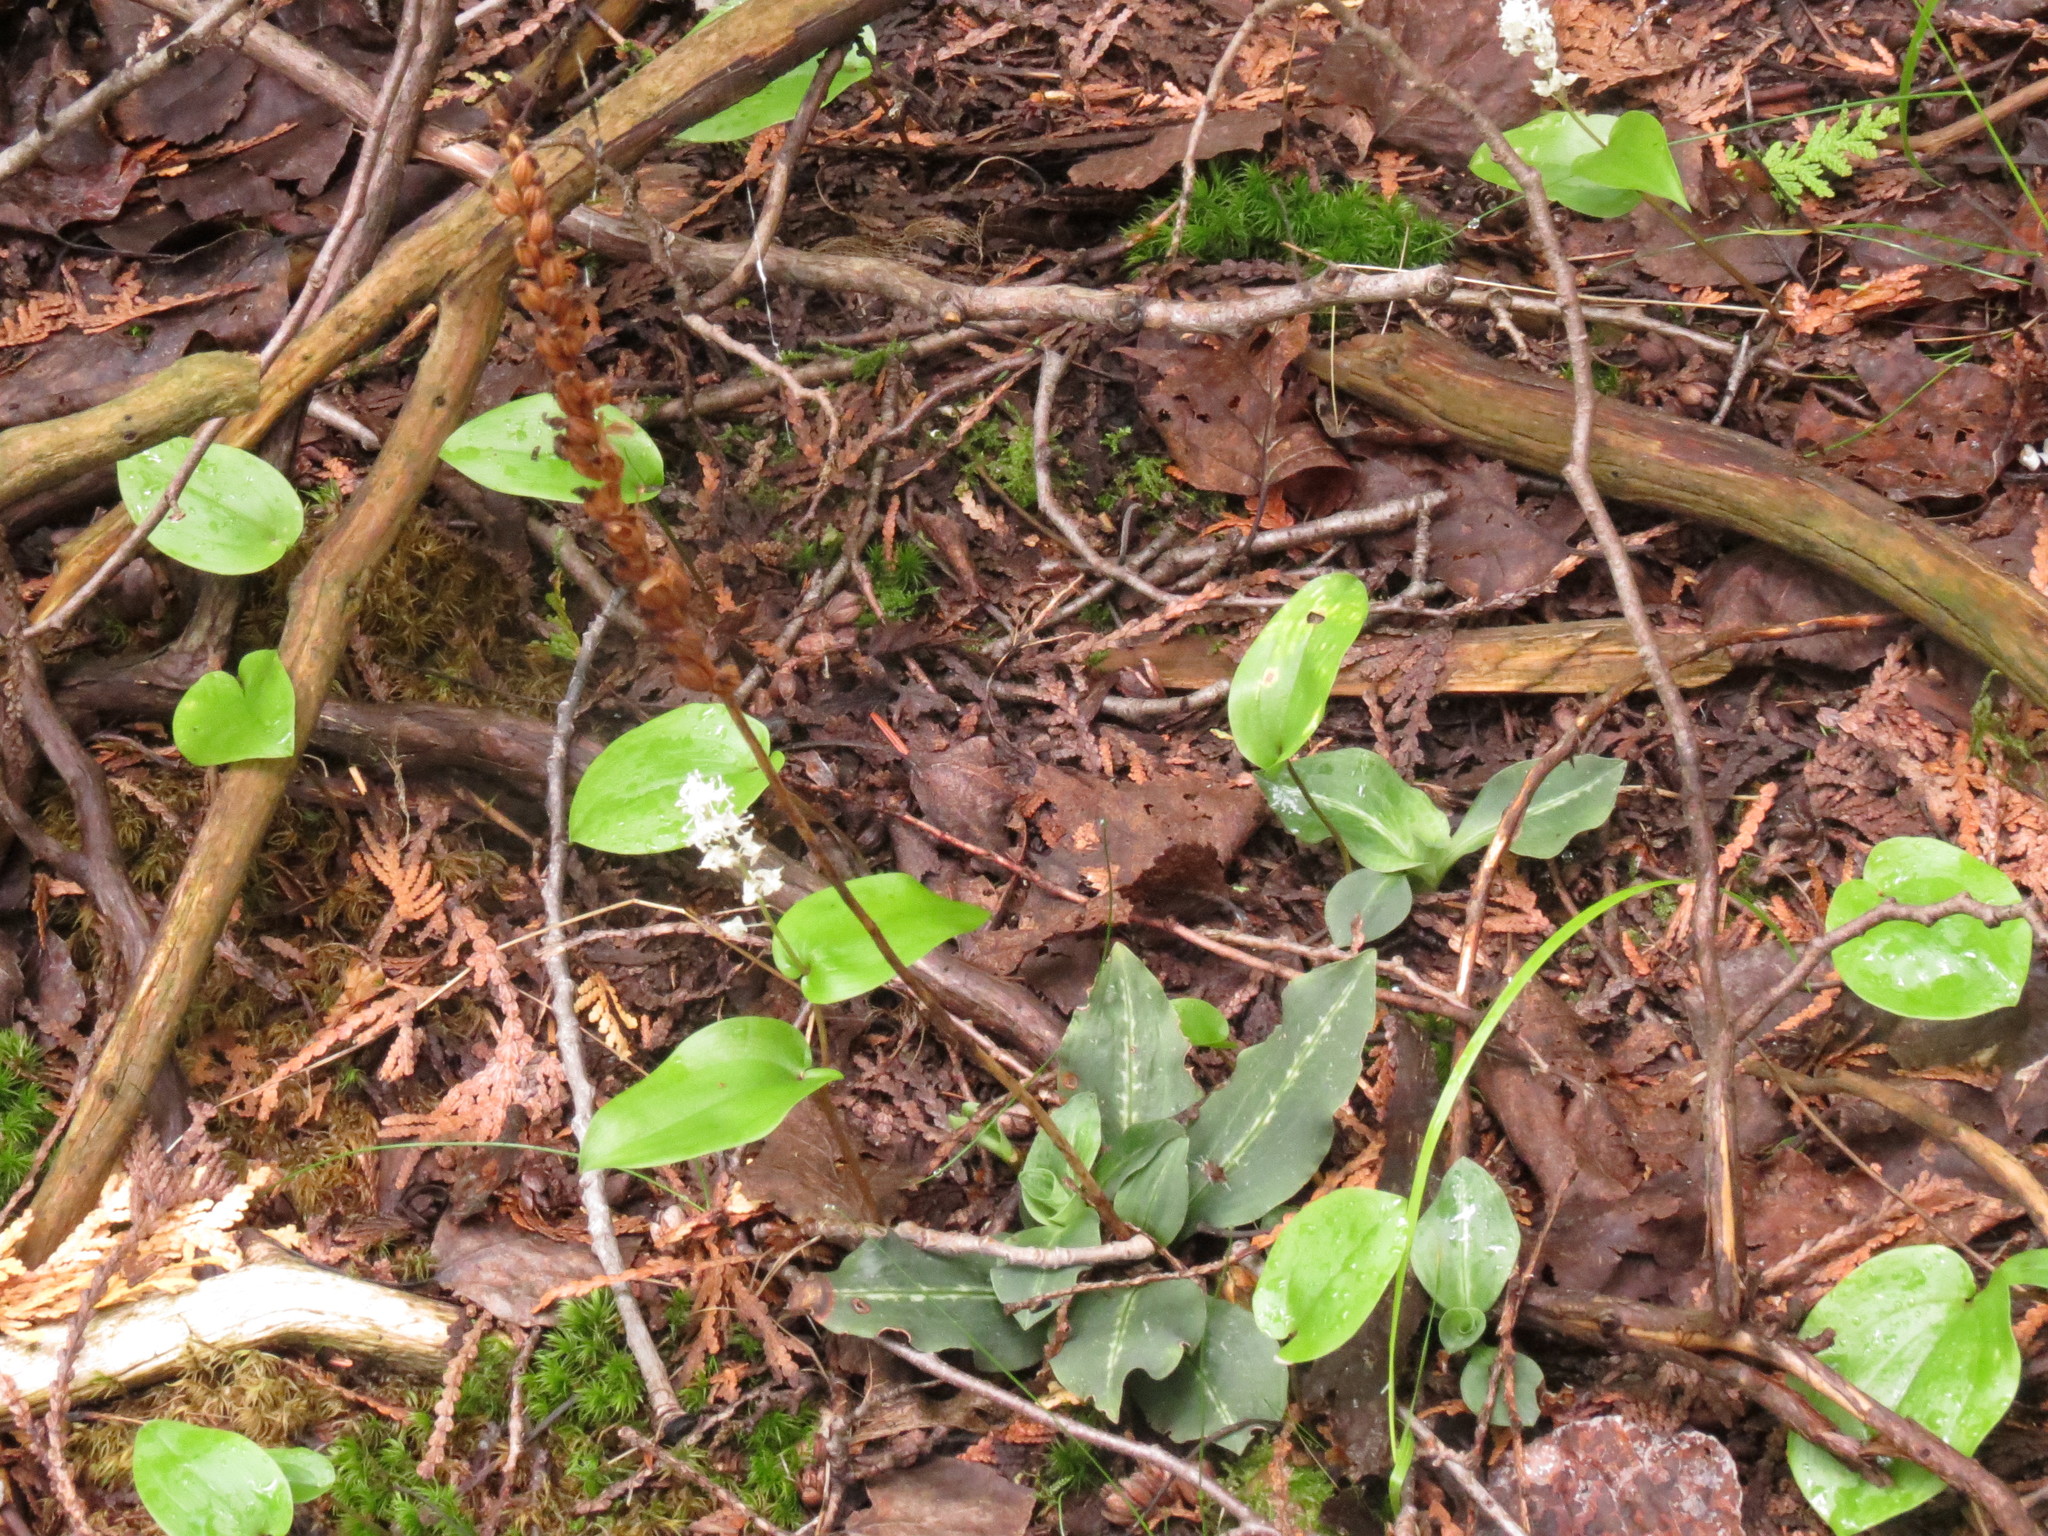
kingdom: Plantae
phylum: Tracheophyta
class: Liliopsida
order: Asparagales
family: Orchidaceae
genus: Goodyera
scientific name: Goodyera oblongifolia
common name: Giant rattlesnake-plantain
